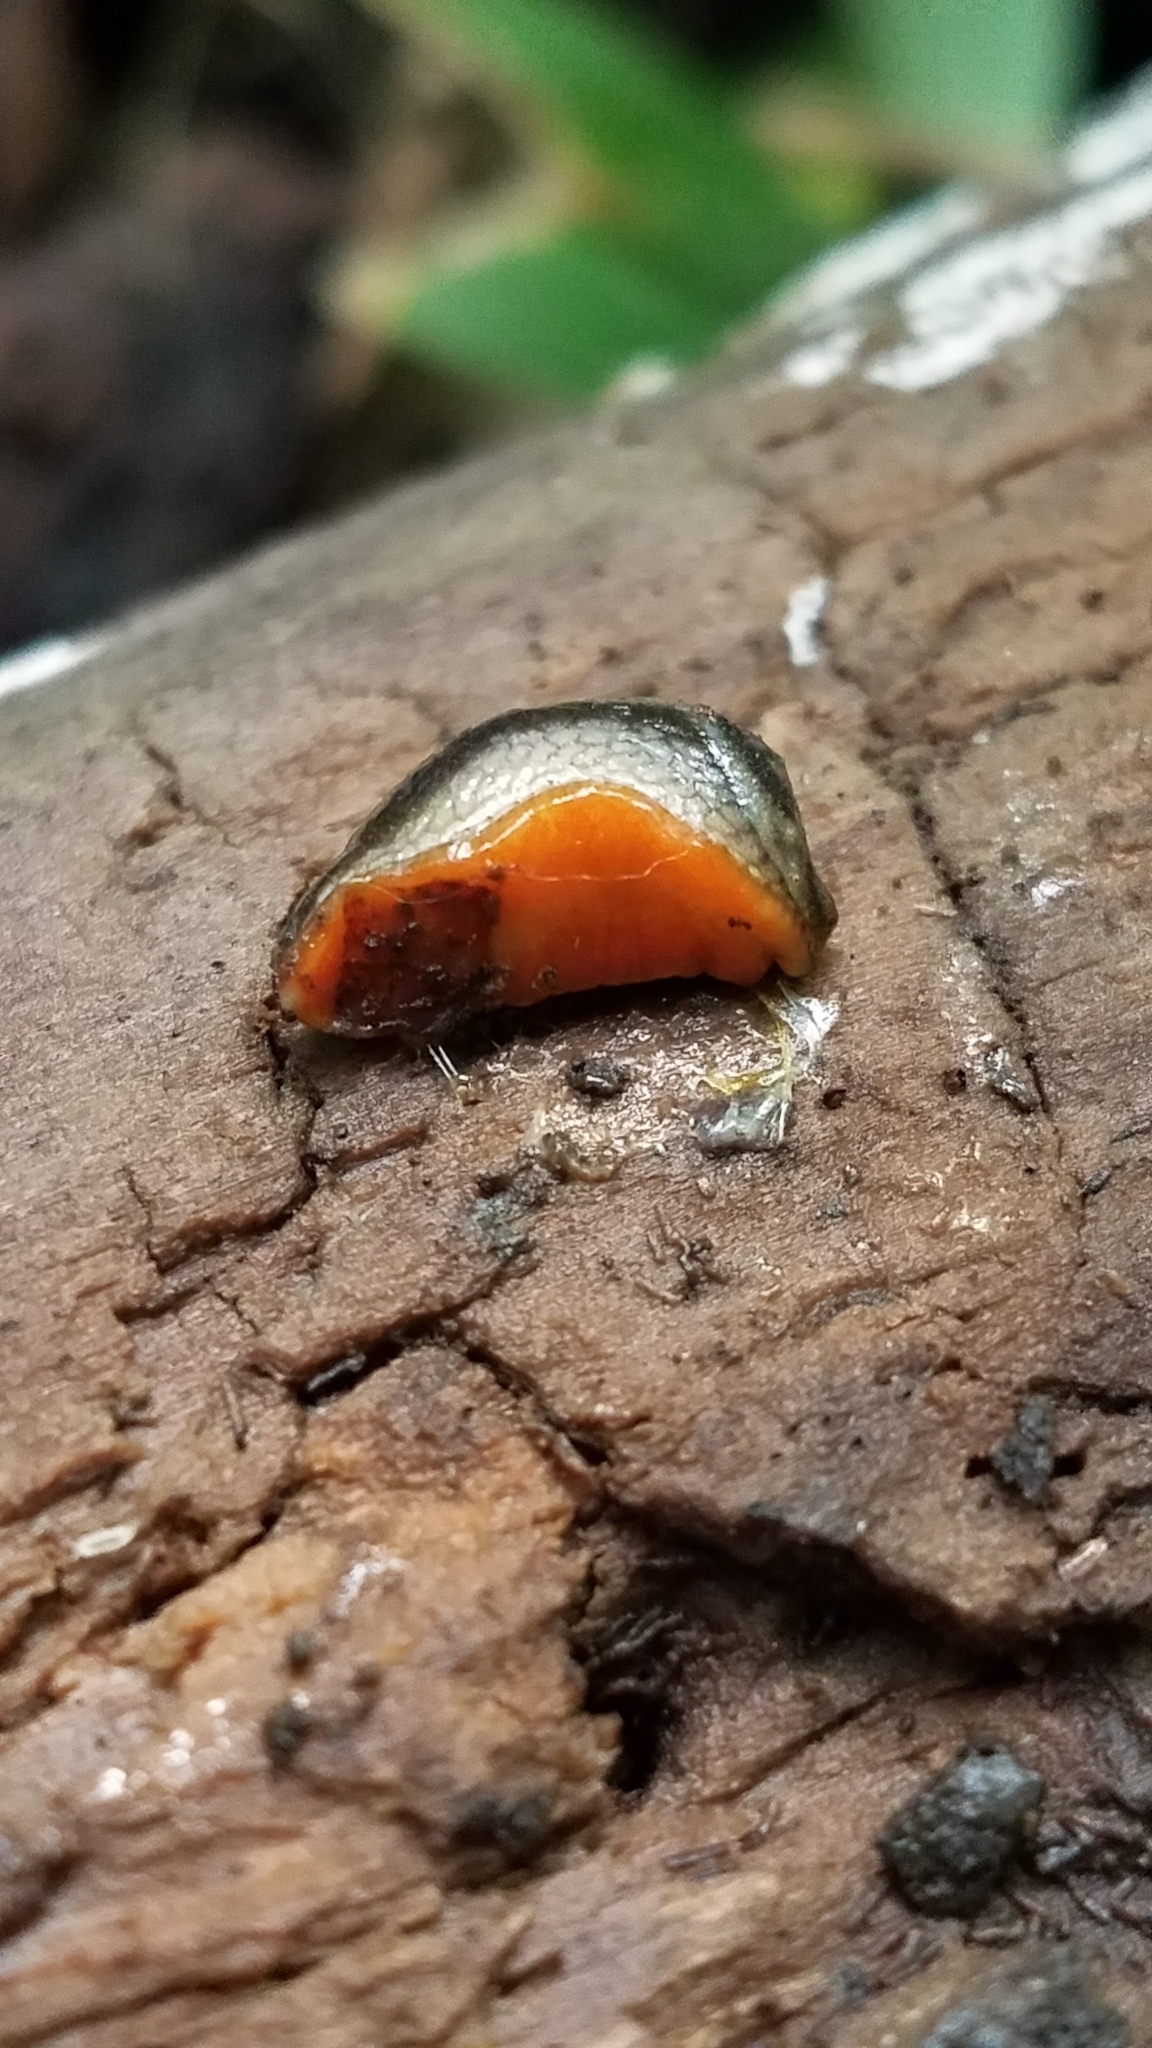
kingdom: Animalia
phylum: Mollusca
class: Gastropoda
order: Stylommatophora
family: Arionidae
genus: Arion
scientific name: Arion hortensis
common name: Garden arion
